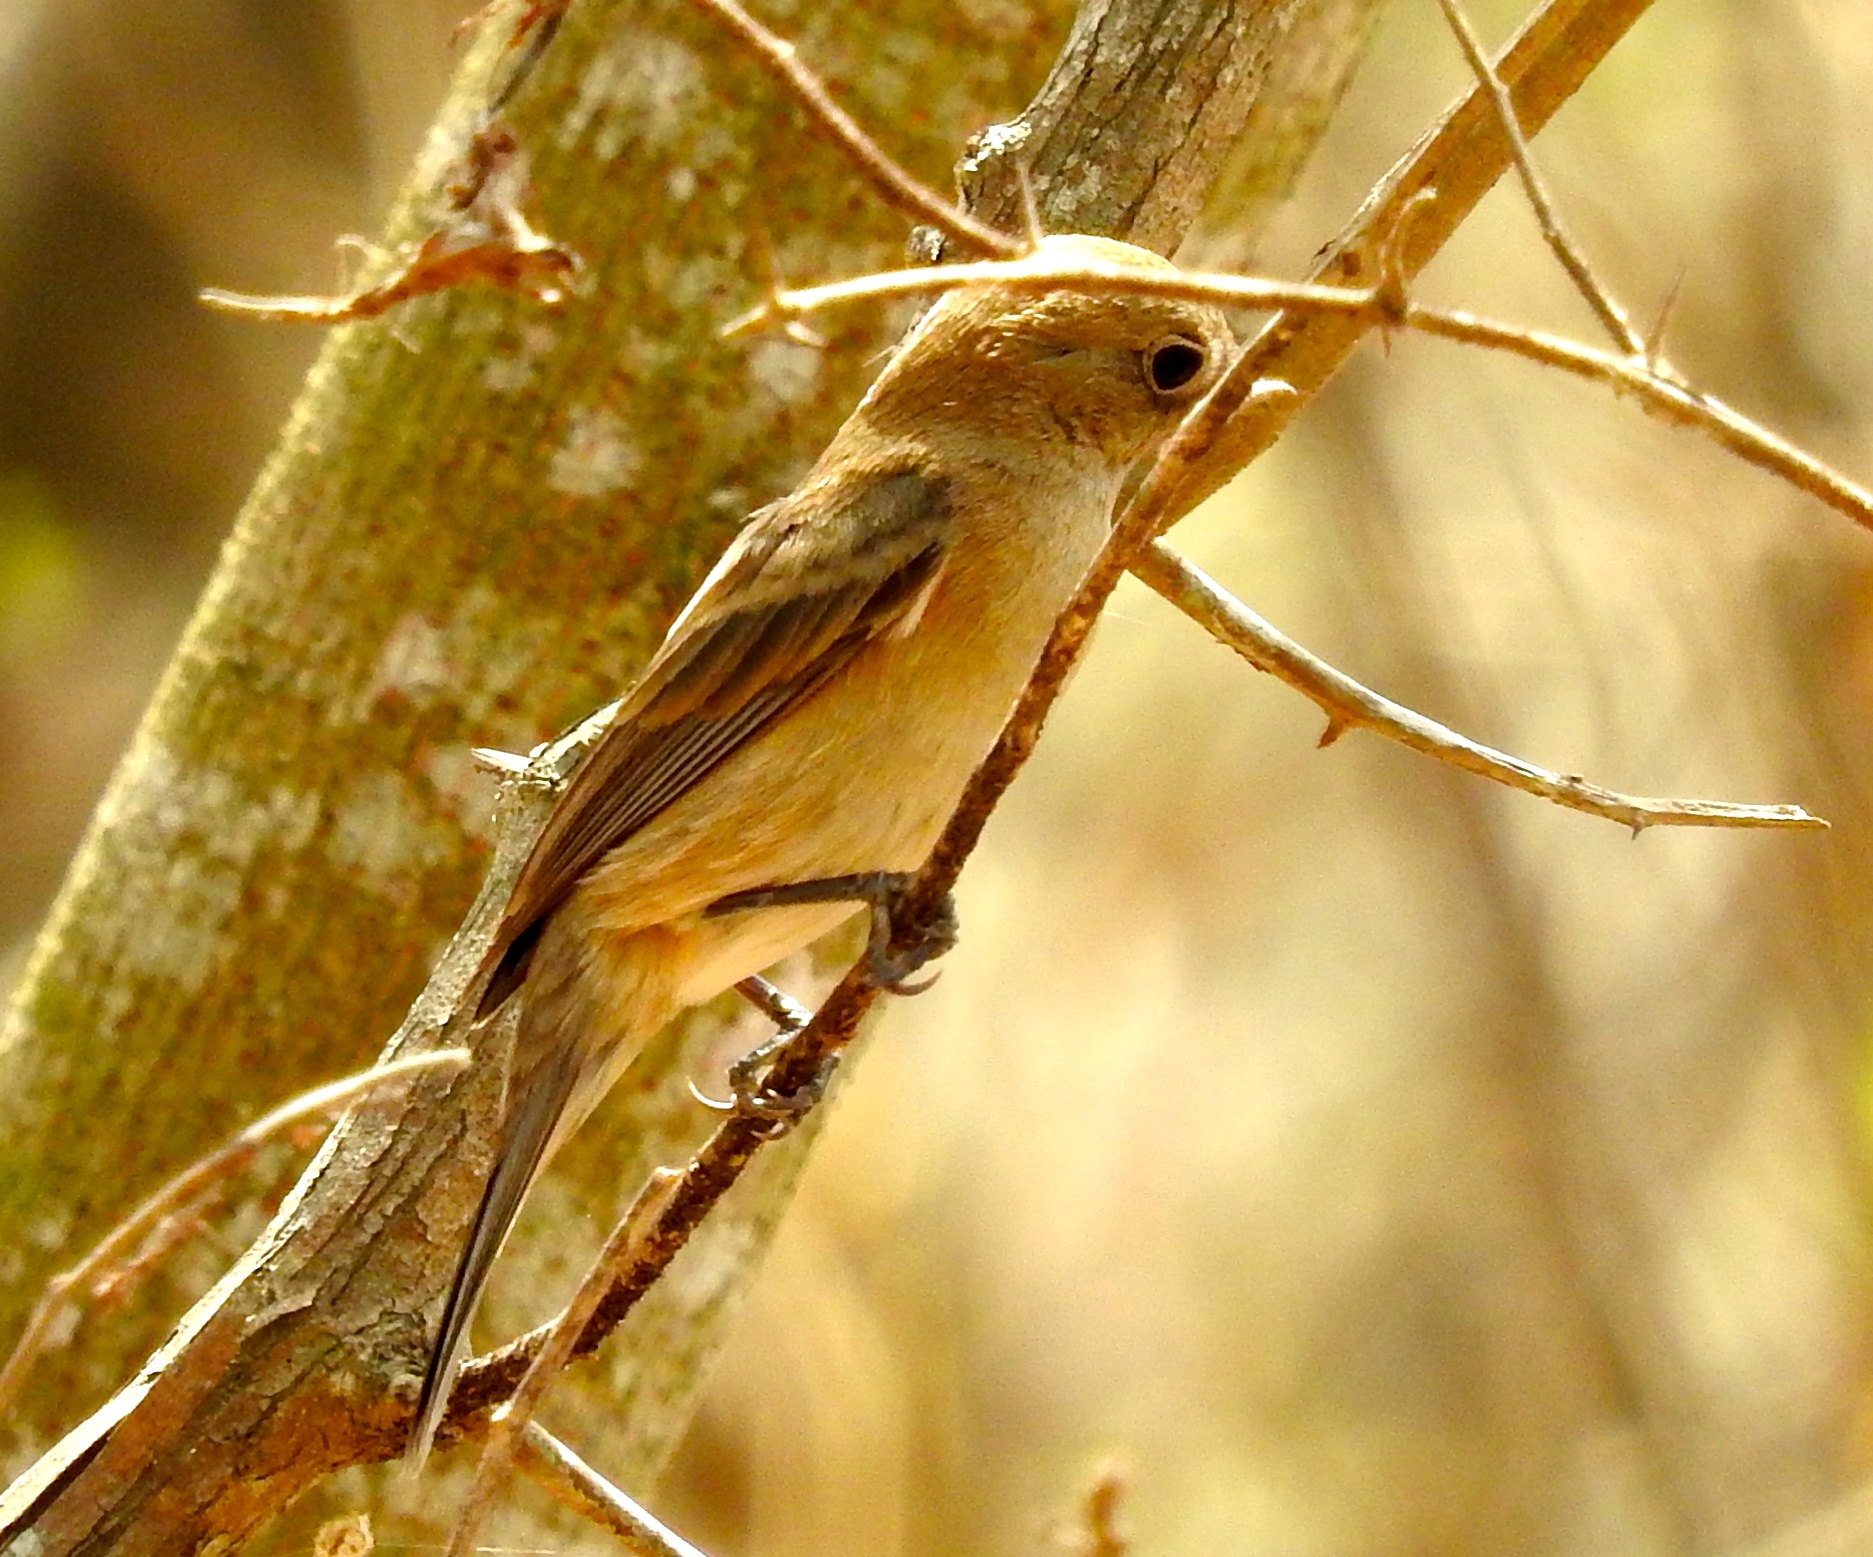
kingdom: Animalia
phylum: Chordata
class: Aves
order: Passeriformes
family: Cardinalidae
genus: Passerina
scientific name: Passerina amoena
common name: Lazuli bunting
